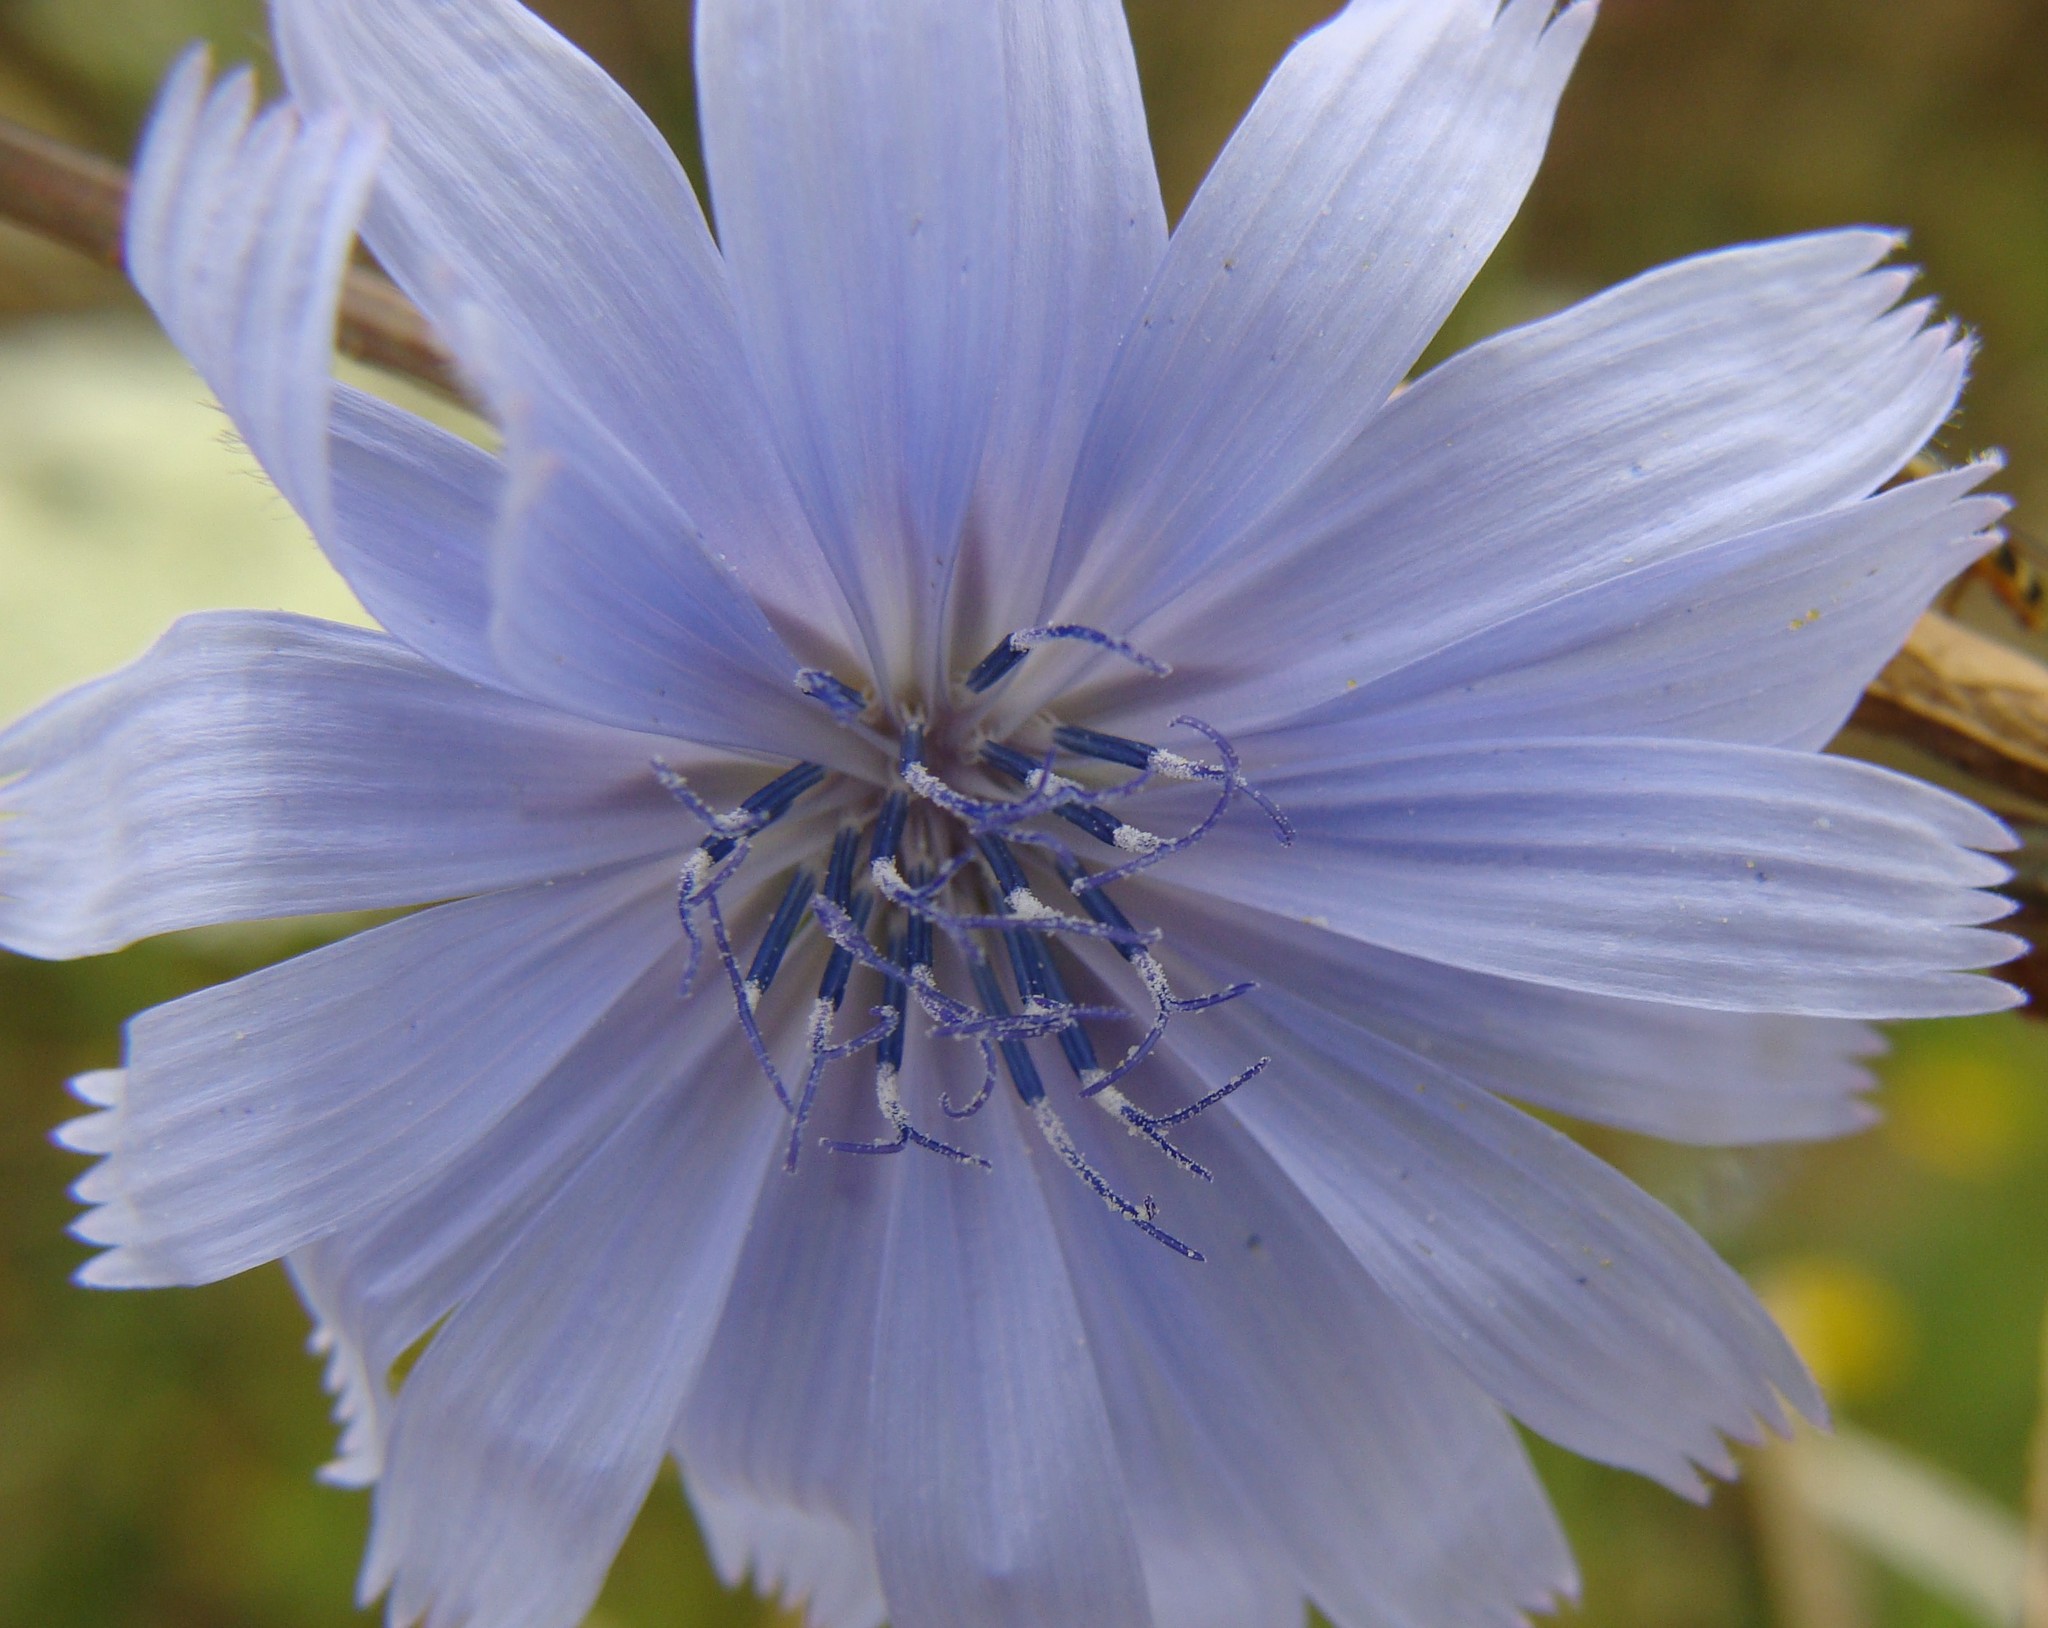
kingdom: Plantae
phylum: Tracheophyta
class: Magnoliopsida
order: Asterales
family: Asteraceae
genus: Cichorium
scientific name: Cichorium intybus
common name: Chicory
